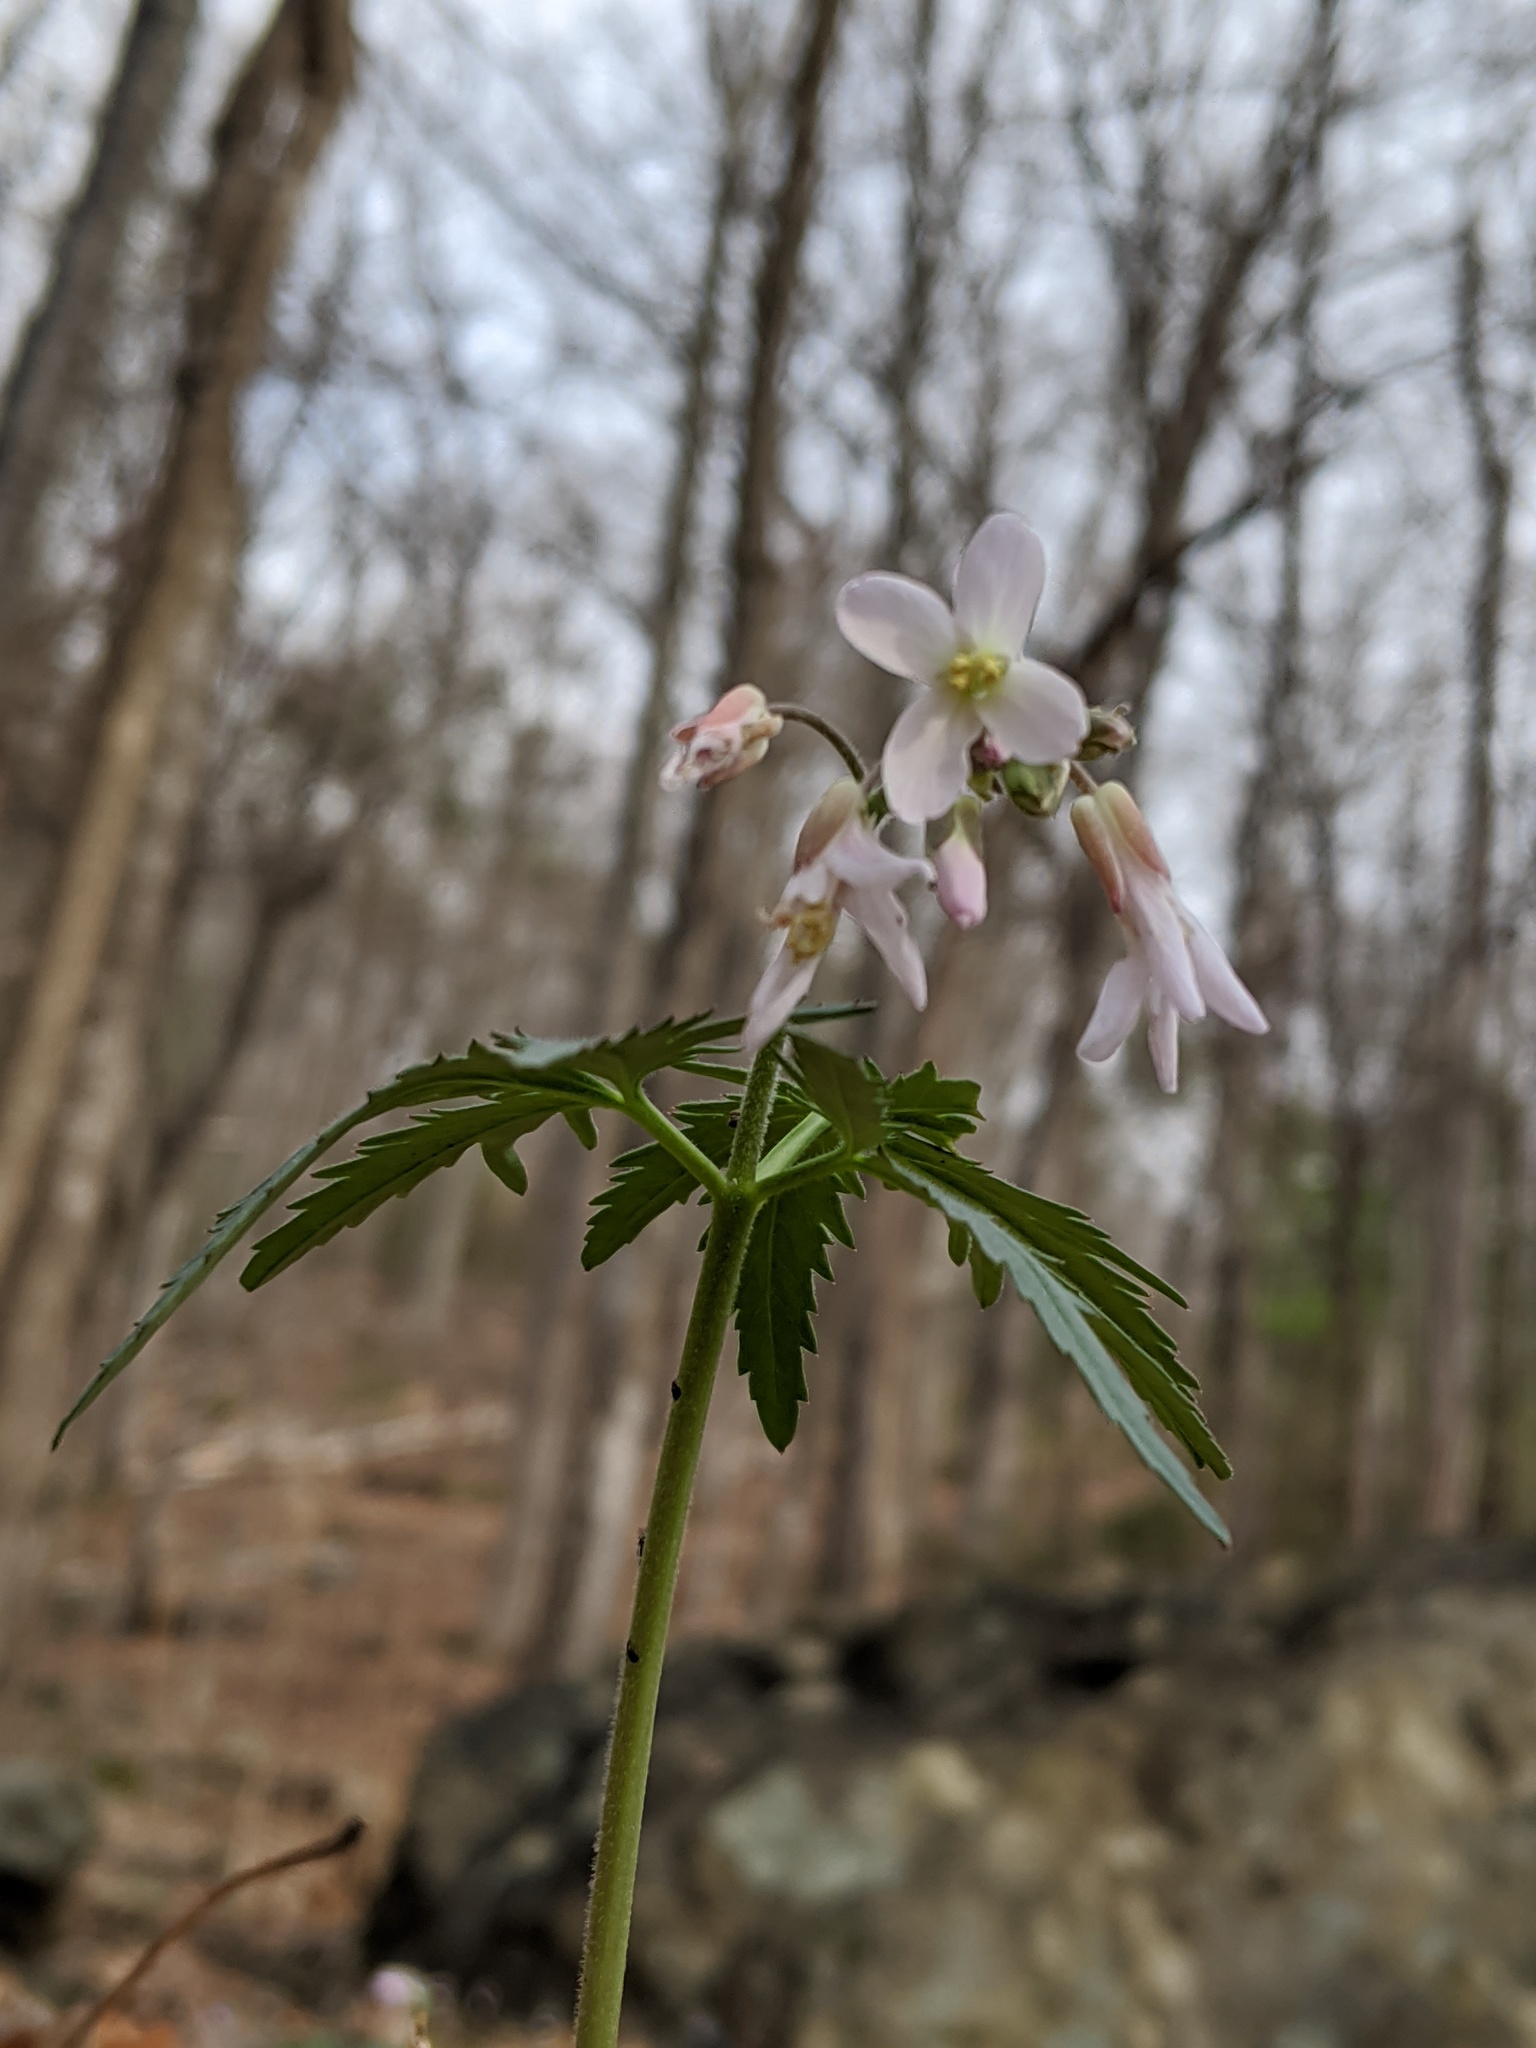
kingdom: Plantae
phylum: Tracheophyta
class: Magnoliopsida
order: Brassicales
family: Brassicaceae
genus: Cardamine
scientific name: Cardamine concatenata
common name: Cut-leaf toothcup
